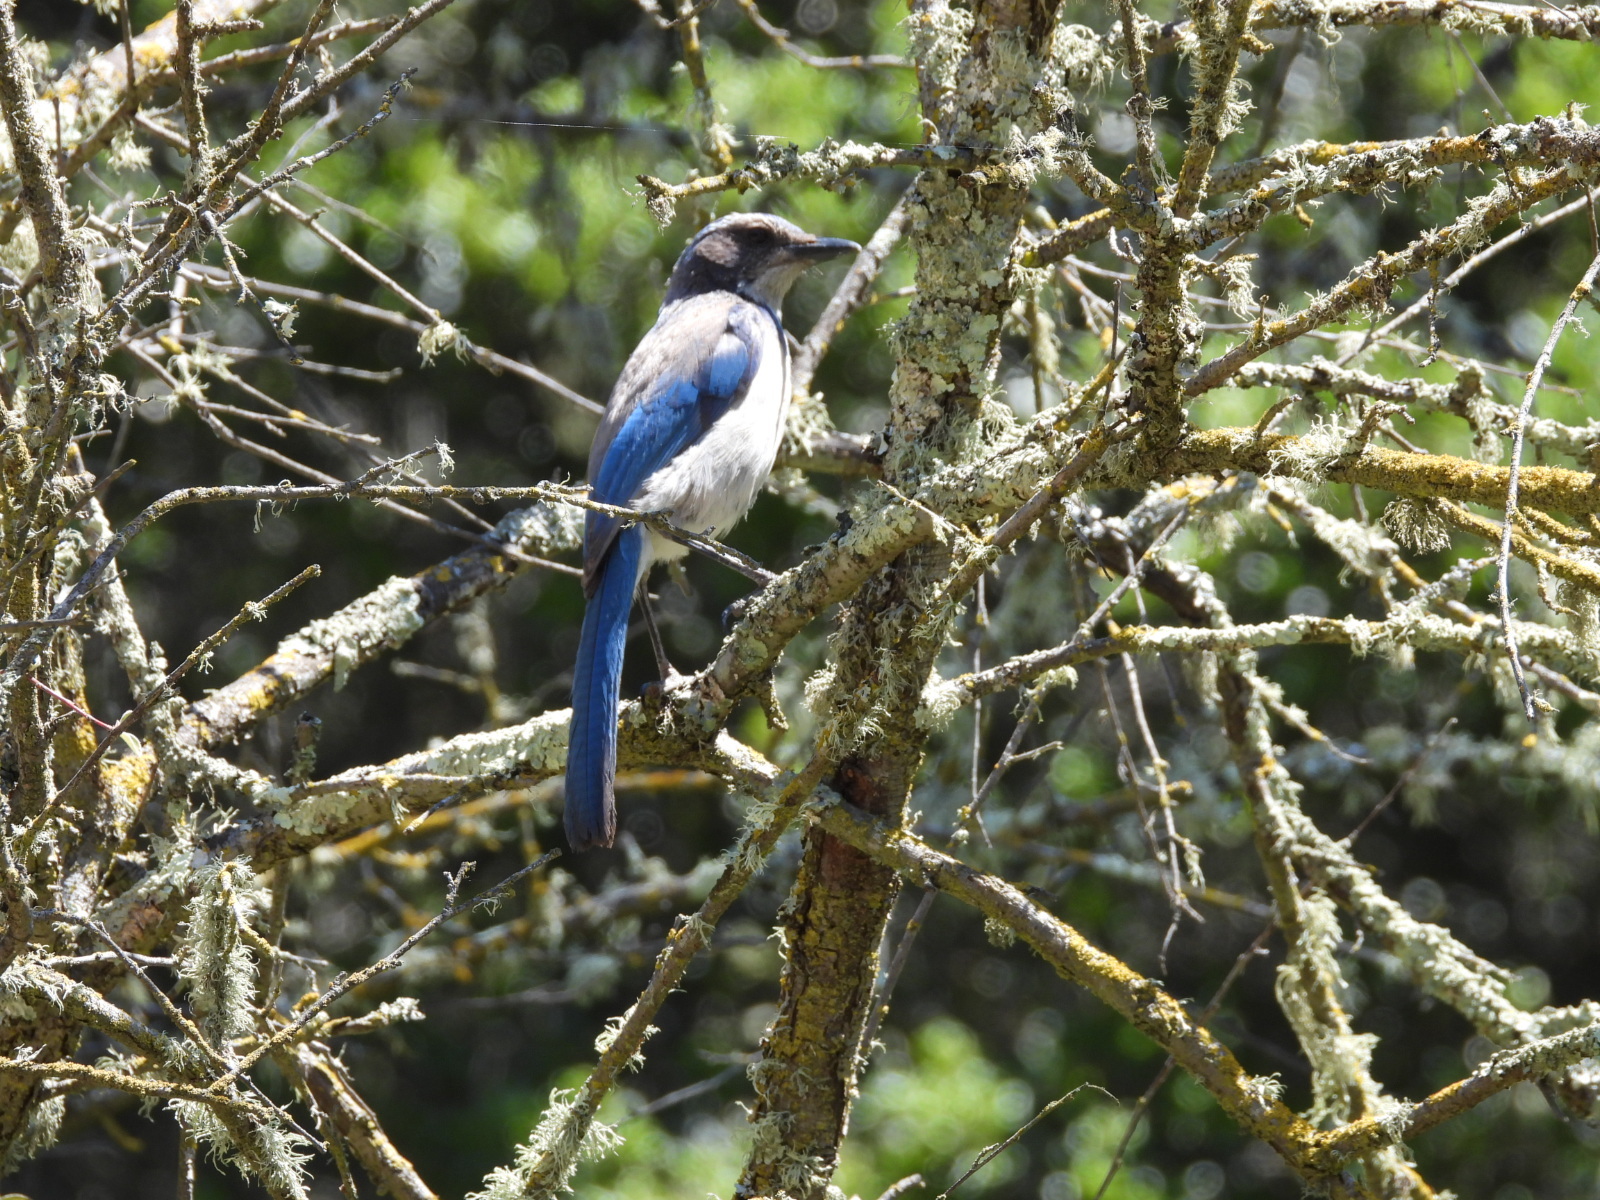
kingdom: Animalia
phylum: Chordata
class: Aves
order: Passeriformes
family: Corvidae
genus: Aphelocoma
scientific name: Aphelocoma californica
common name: California scrub-jay
